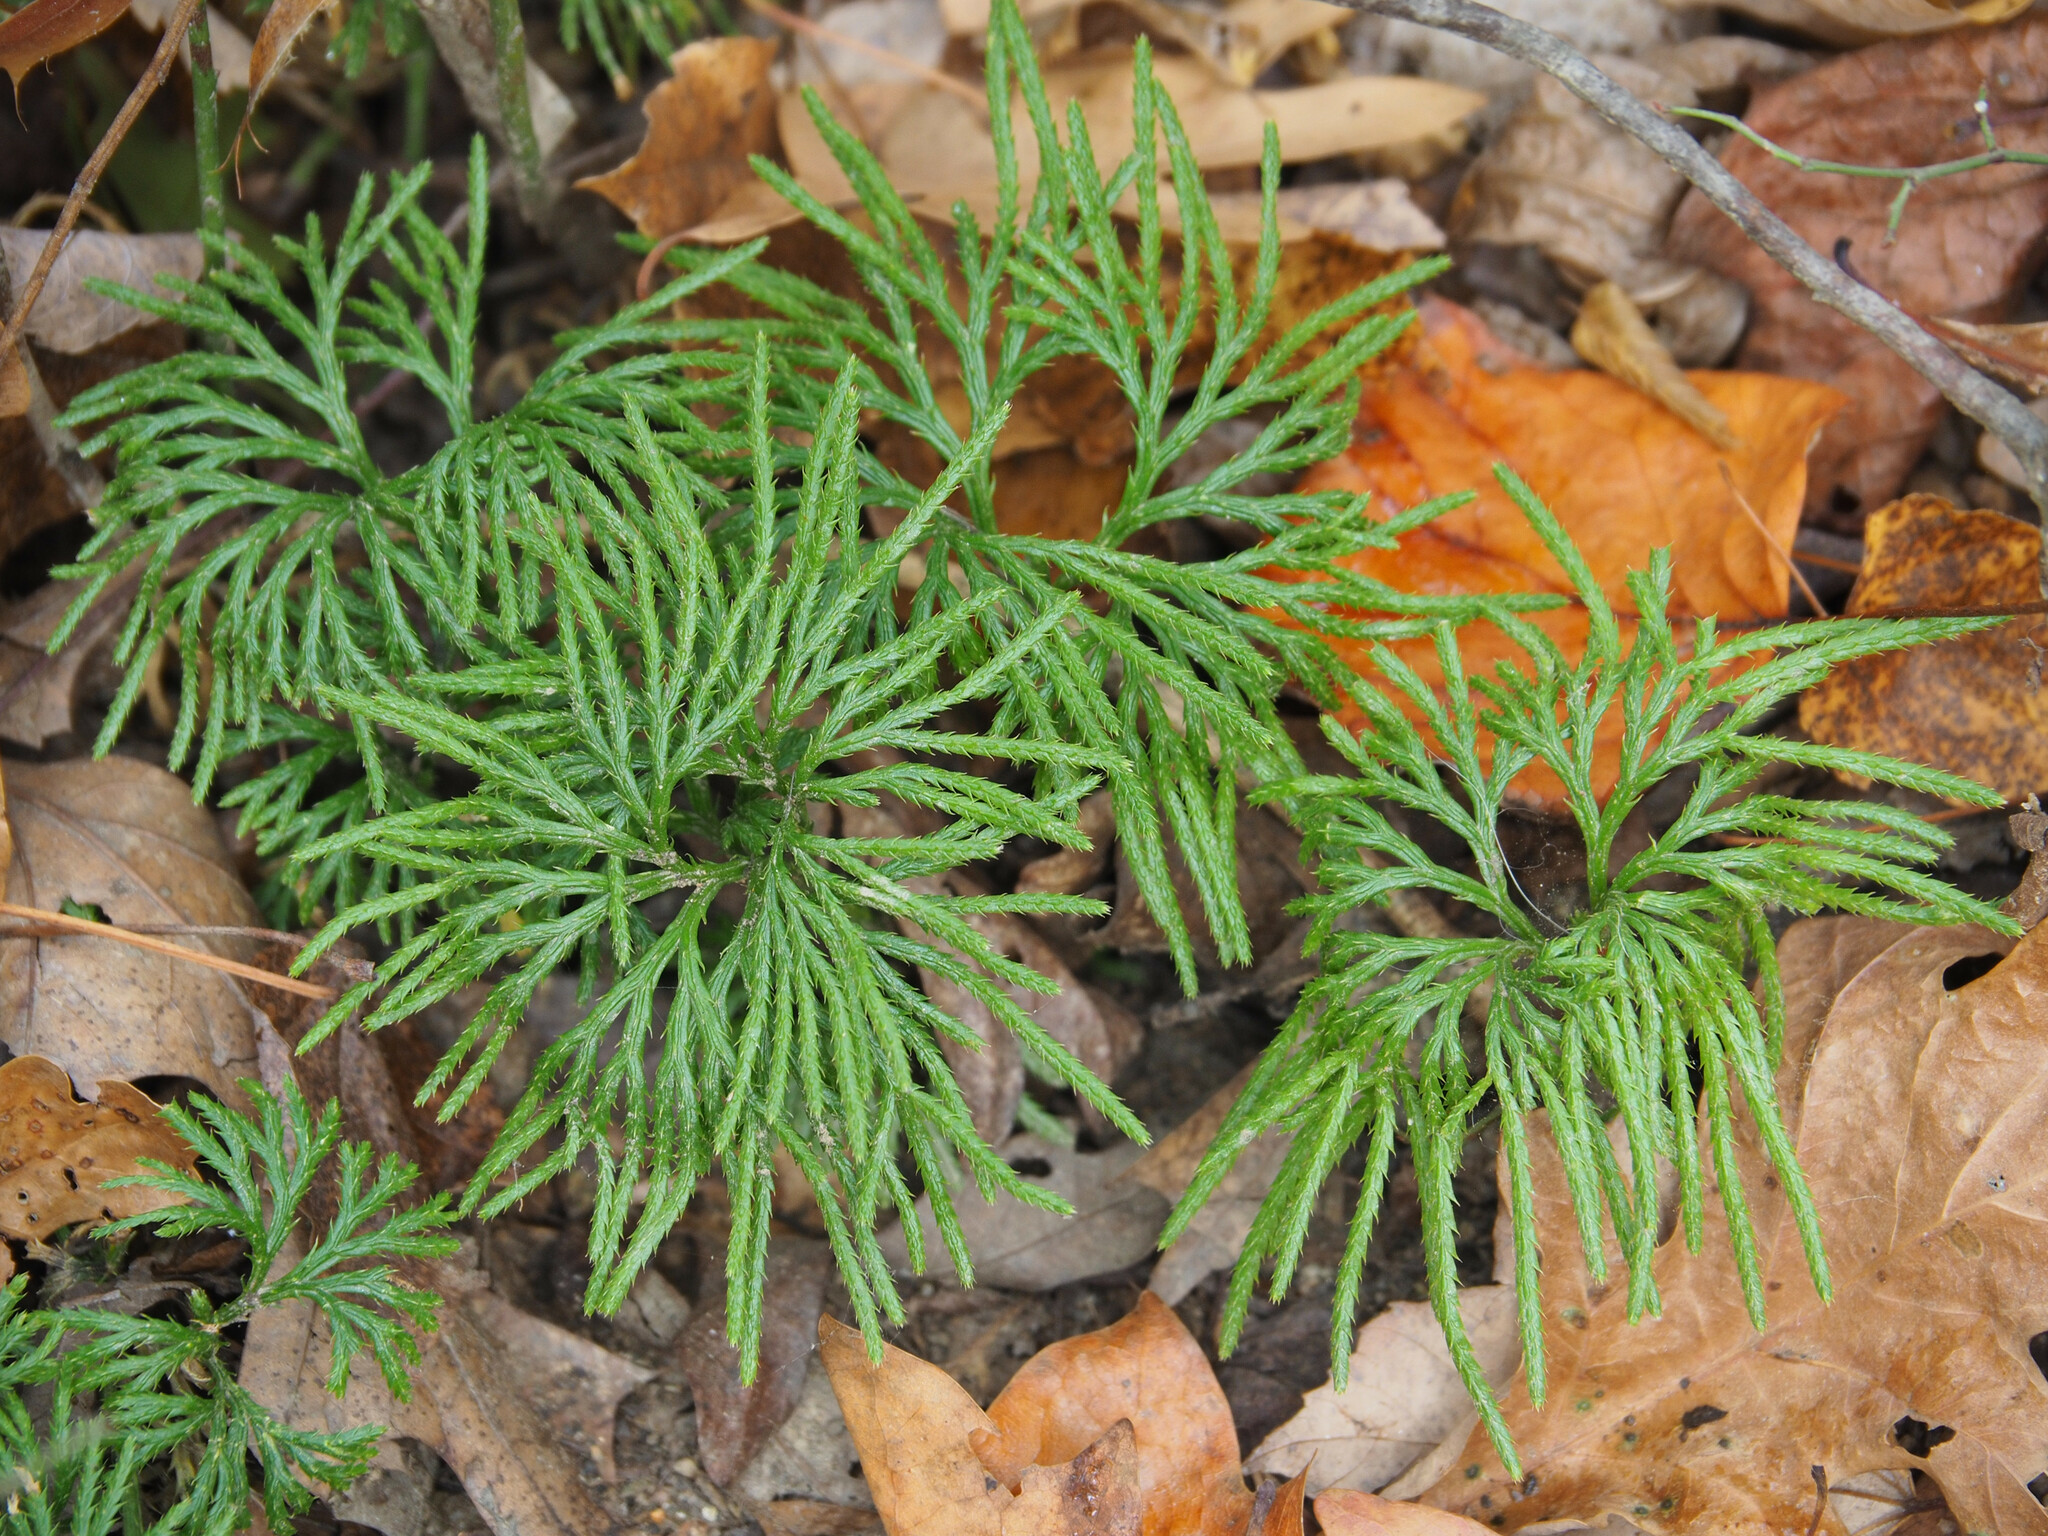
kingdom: Plantae
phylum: Tracheophyta
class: Lycopodiopsida
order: Lycopodiales
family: Lycopodiaceae
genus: Diphasiastrum
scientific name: Diphasiastrum digitatum
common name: Southern running-pine
